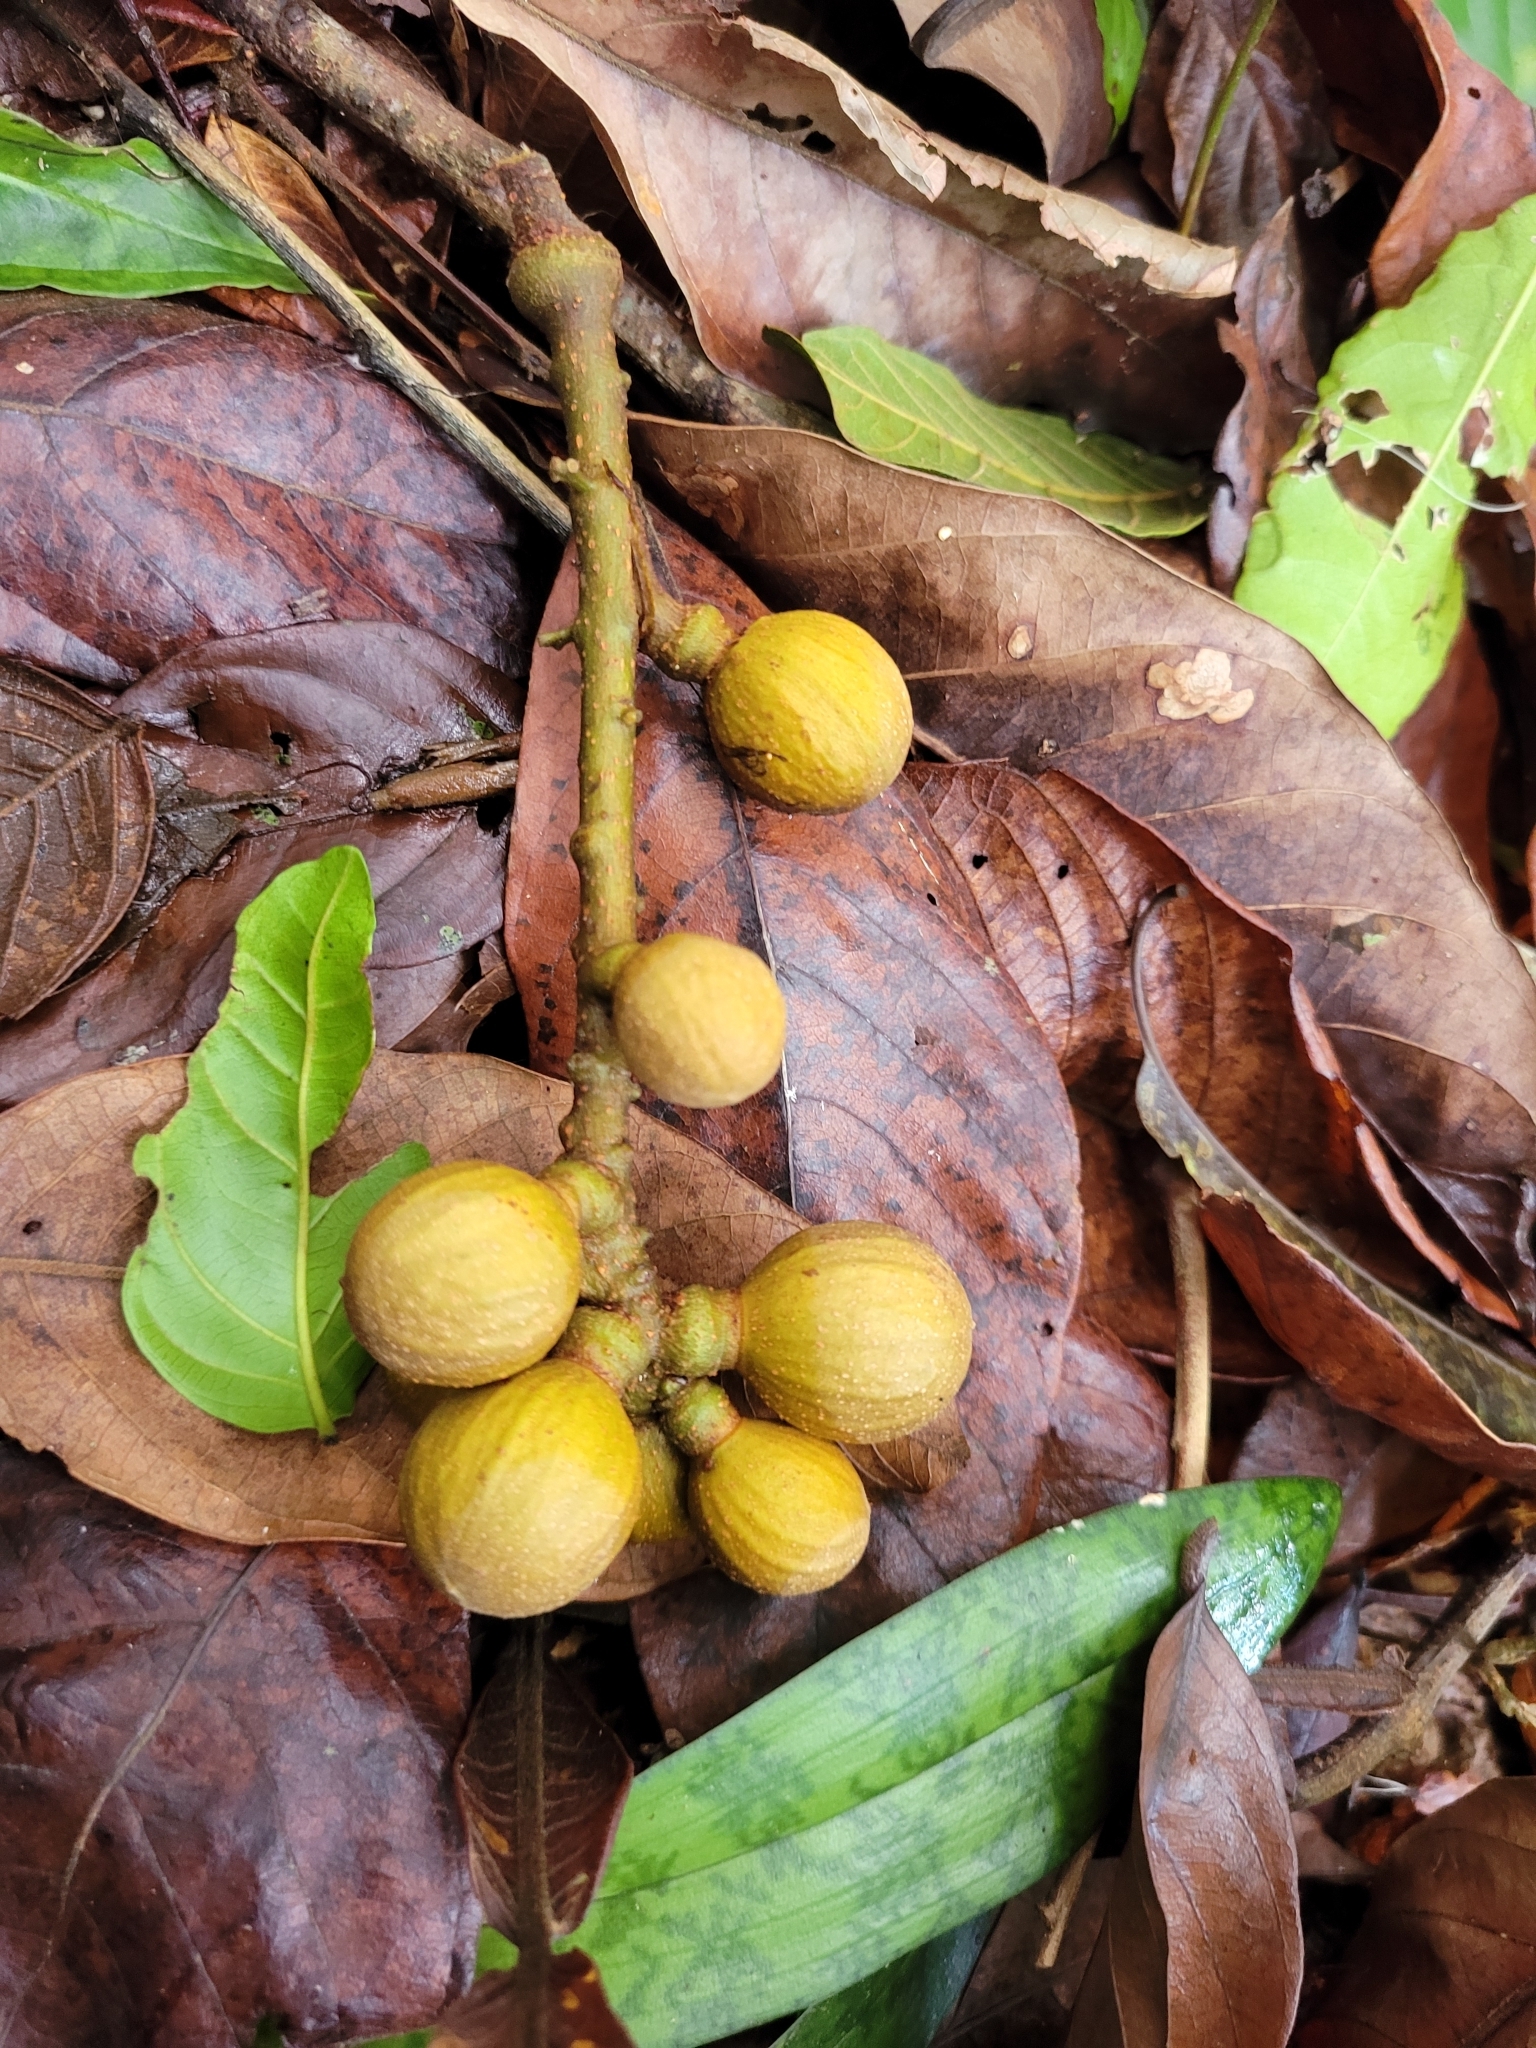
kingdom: Plantae
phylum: Tracheophyta
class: Magnoliopsida
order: Sapindales
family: Meliaceae
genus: Guarea
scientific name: Guarea guidonia
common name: American muskwood
